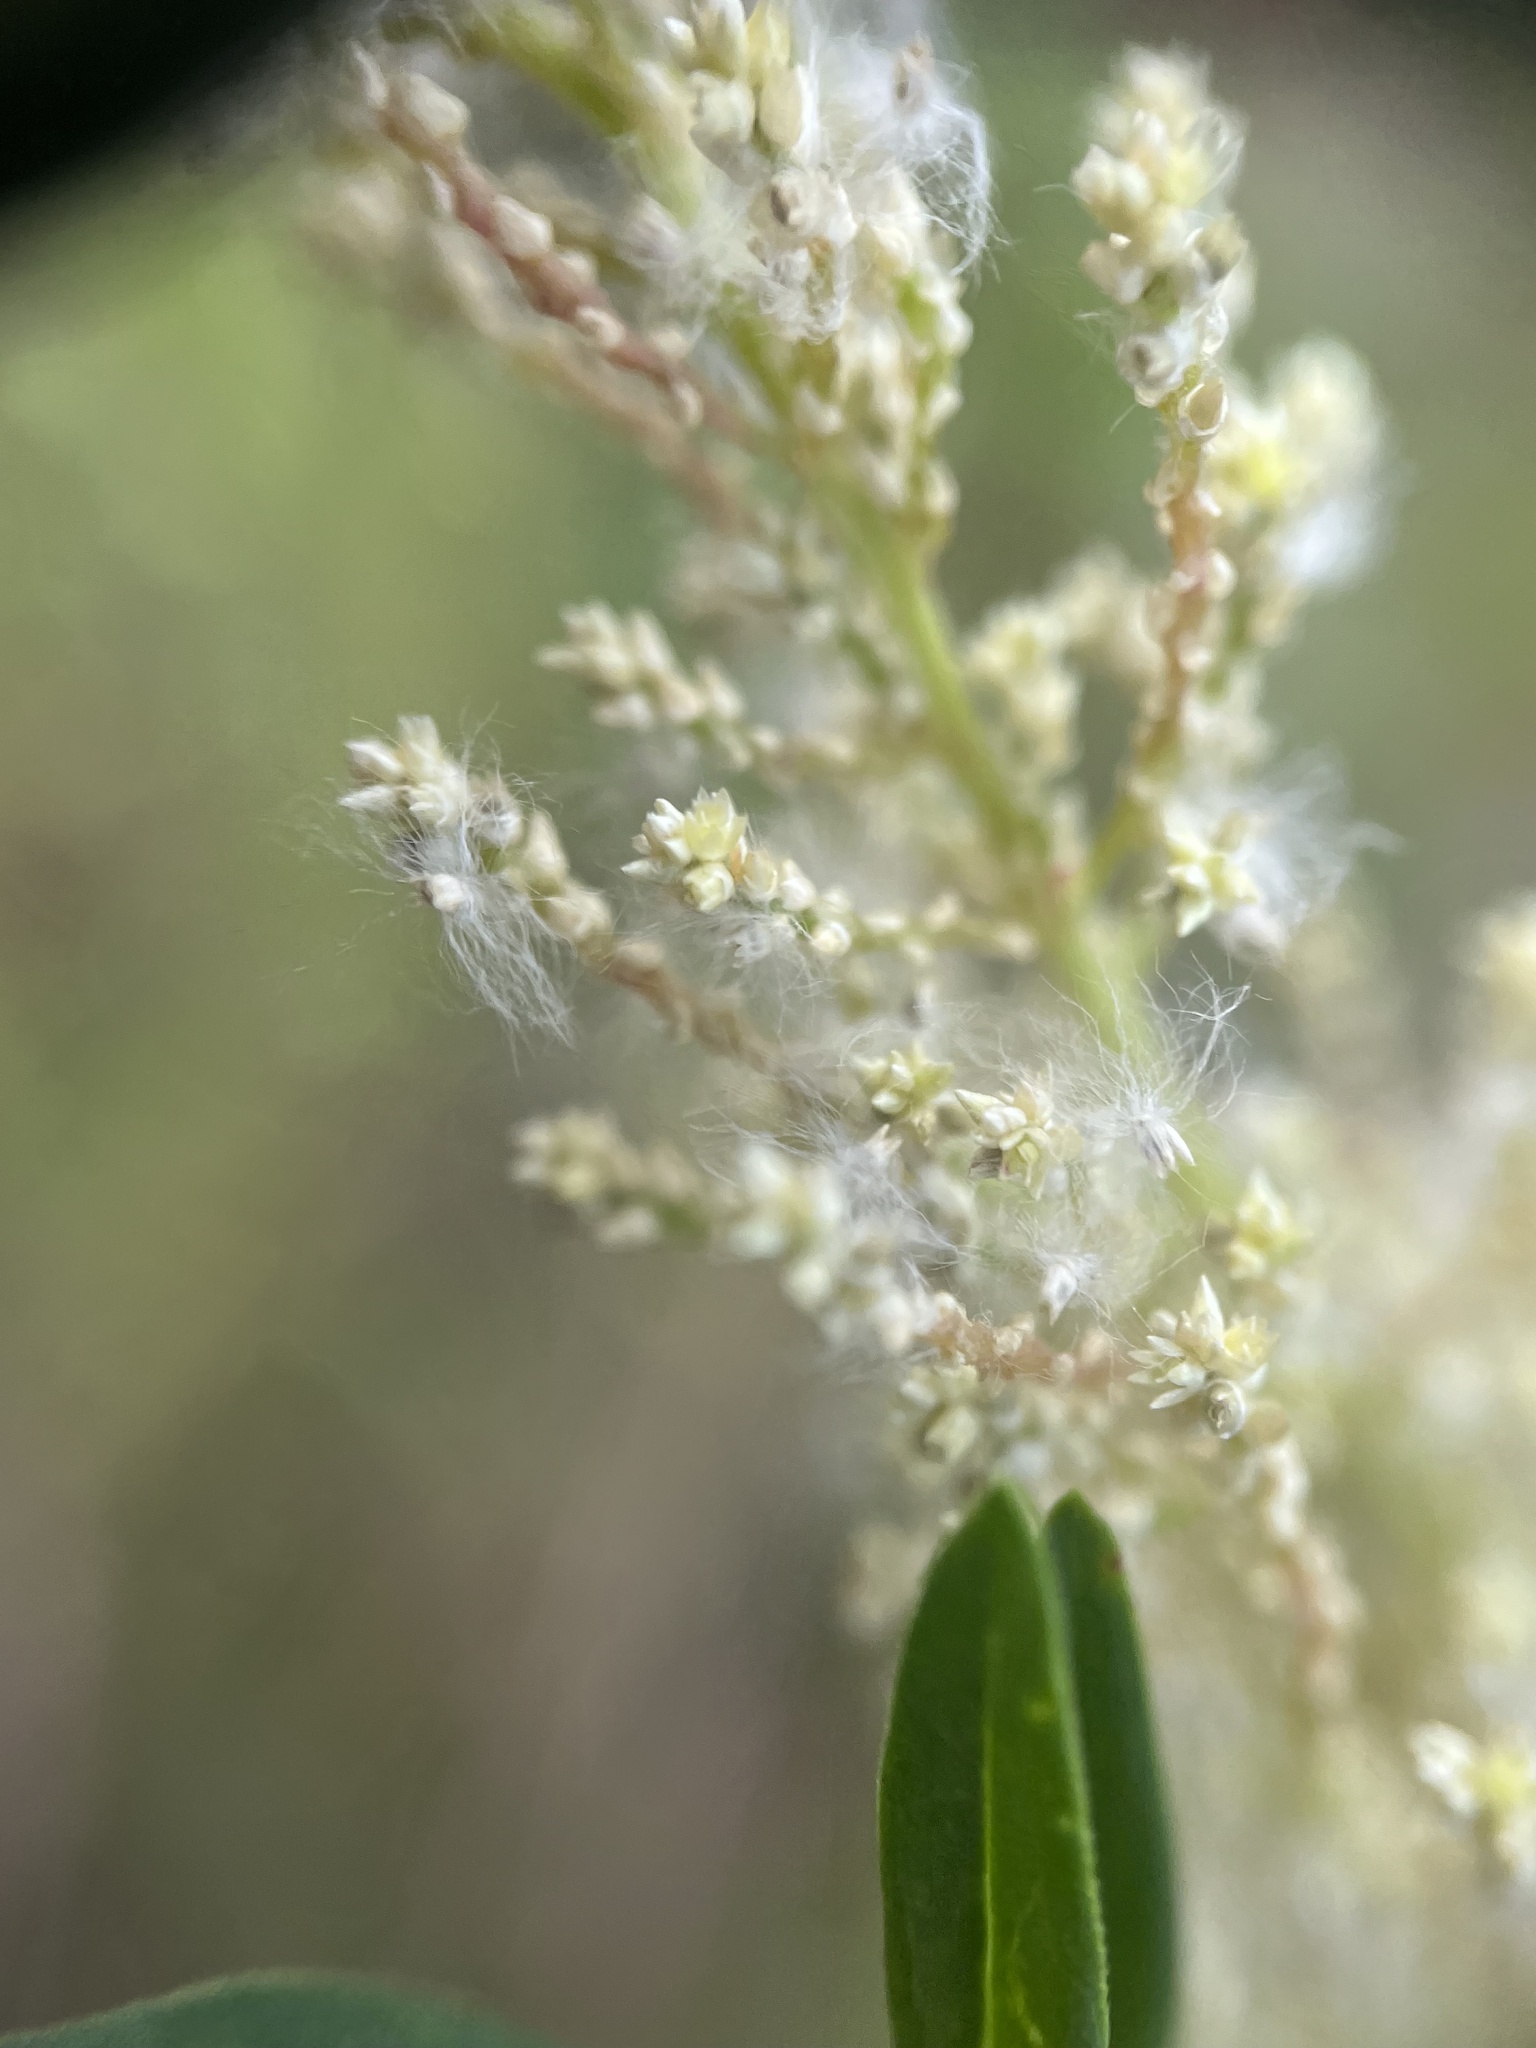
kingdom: Plantae
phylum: Tracheophyta
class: Magnoliopsida
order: Caryophyllales
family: Amaranthaceae
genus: Iresine
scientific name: Iresine diffusa
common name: Juba's-bush
